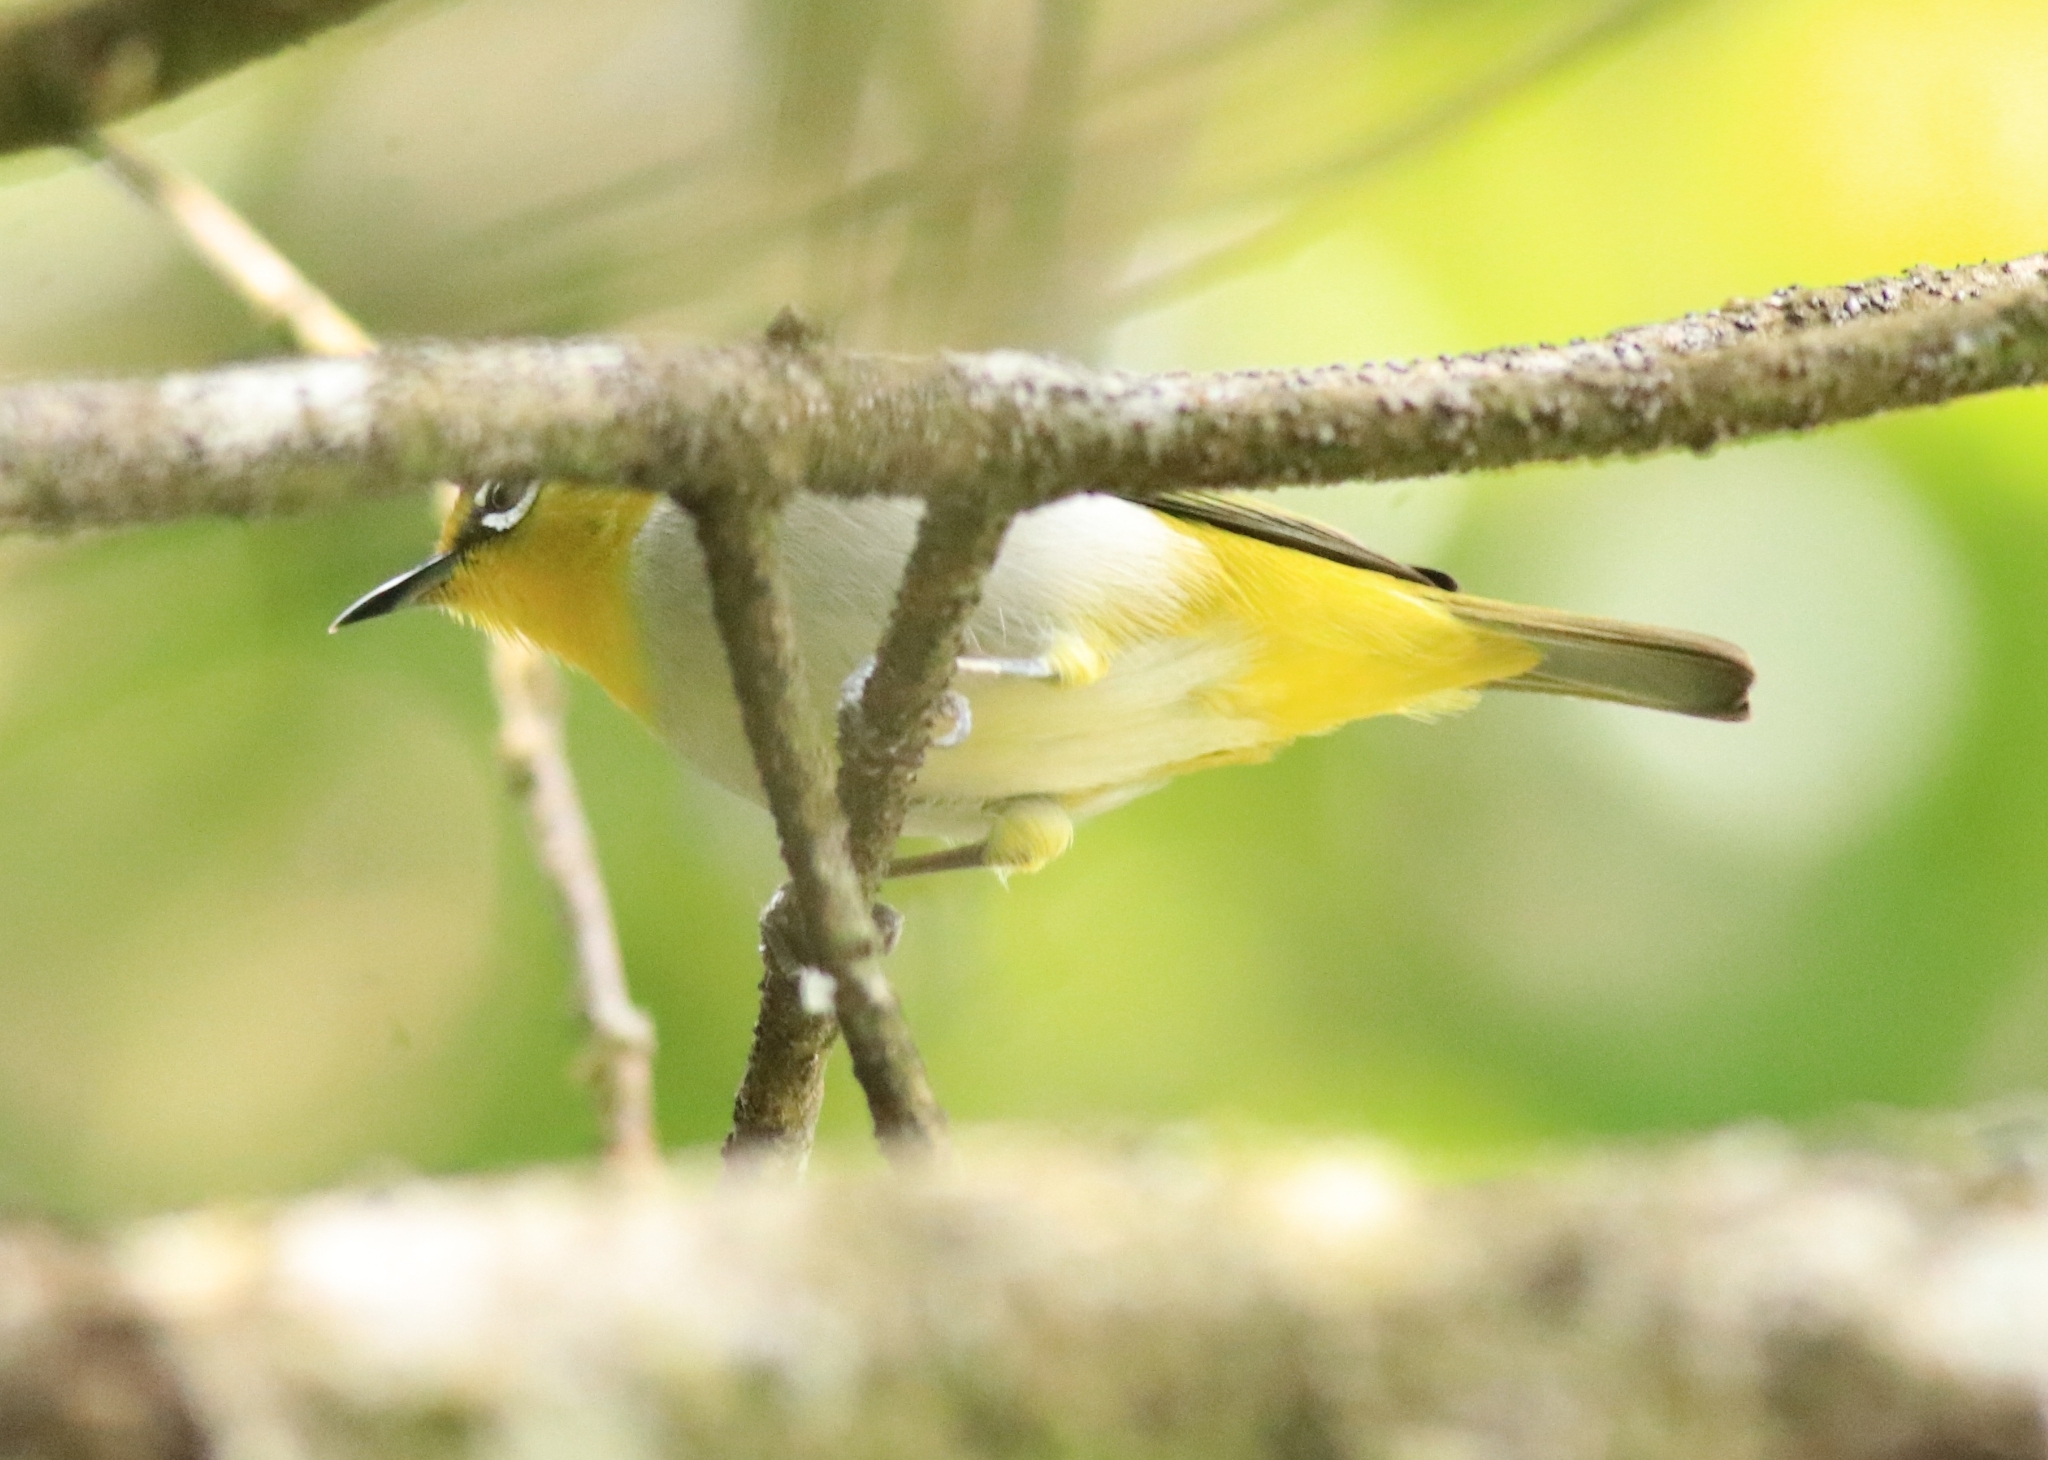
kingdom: Animalia
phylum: Chordata
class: Aves
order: Passeriformes
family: Zosteropidae
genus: Zosterops
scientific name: Zosterops palpebrosus
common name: Oriental white-eye
